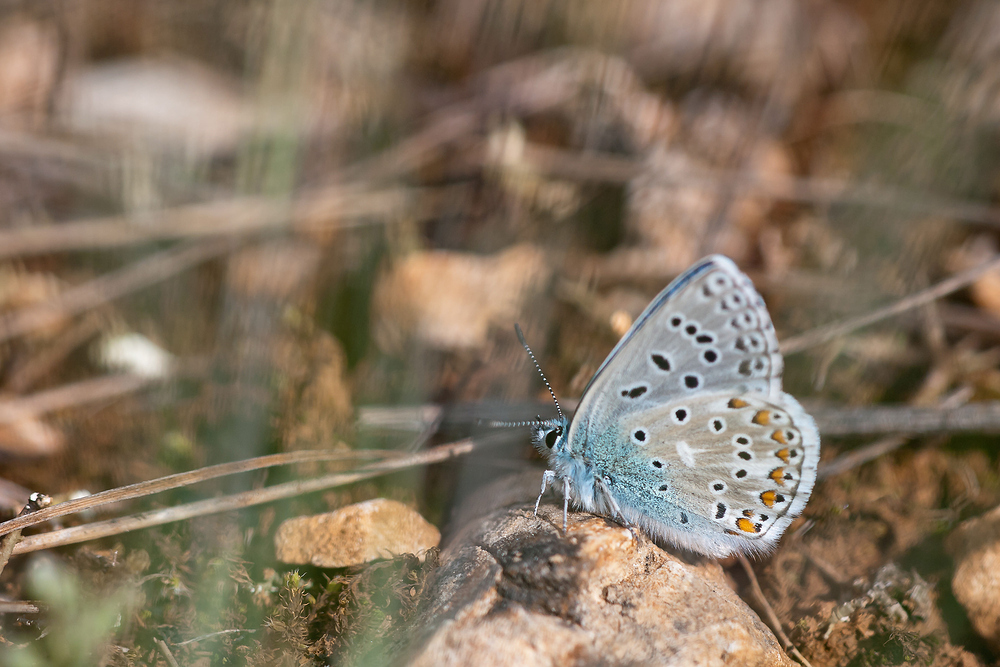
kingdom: Animalia
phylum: Arthropoda
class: Insecta
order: Lepidoptera
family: Lycaenidae
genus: Lysandra
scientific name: Lysandra bellargus
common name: Adonis blue
